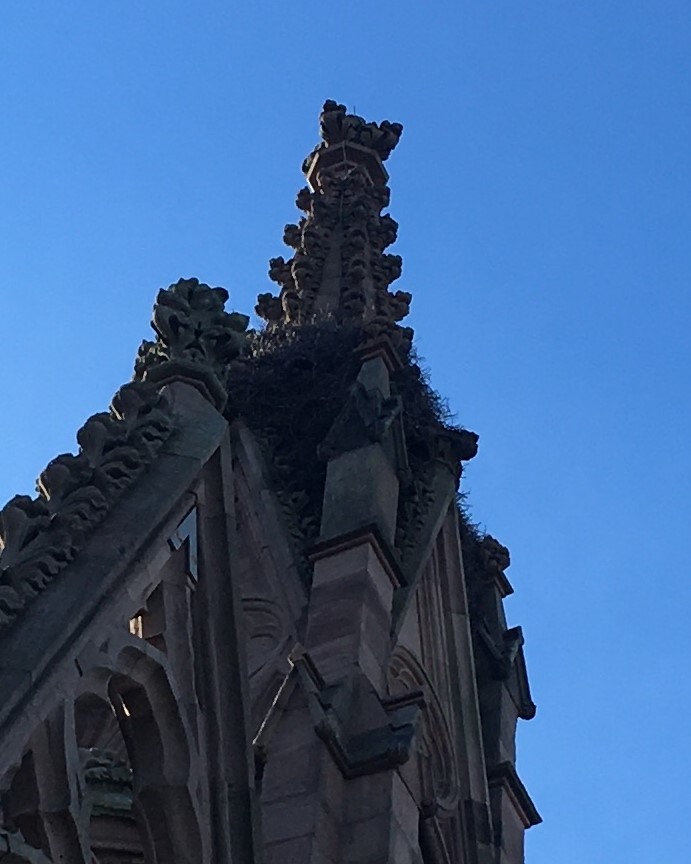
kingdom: Animalia
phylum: Chordata
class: Aves
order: Psittaciformes
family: Psittacidae
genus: Myiopsitta
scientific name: Myiopsitta monachus
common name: Monk parakeet
